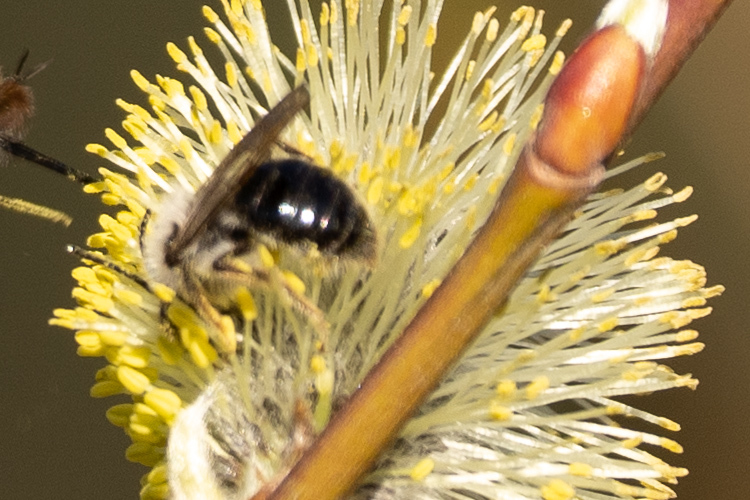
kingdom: Animalia
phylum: Arthropoda
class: Insecta
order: Hymenoptera
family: Andrenidae
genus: Andrena
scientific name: Andrena vaga
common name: Grey-backed mining bee
